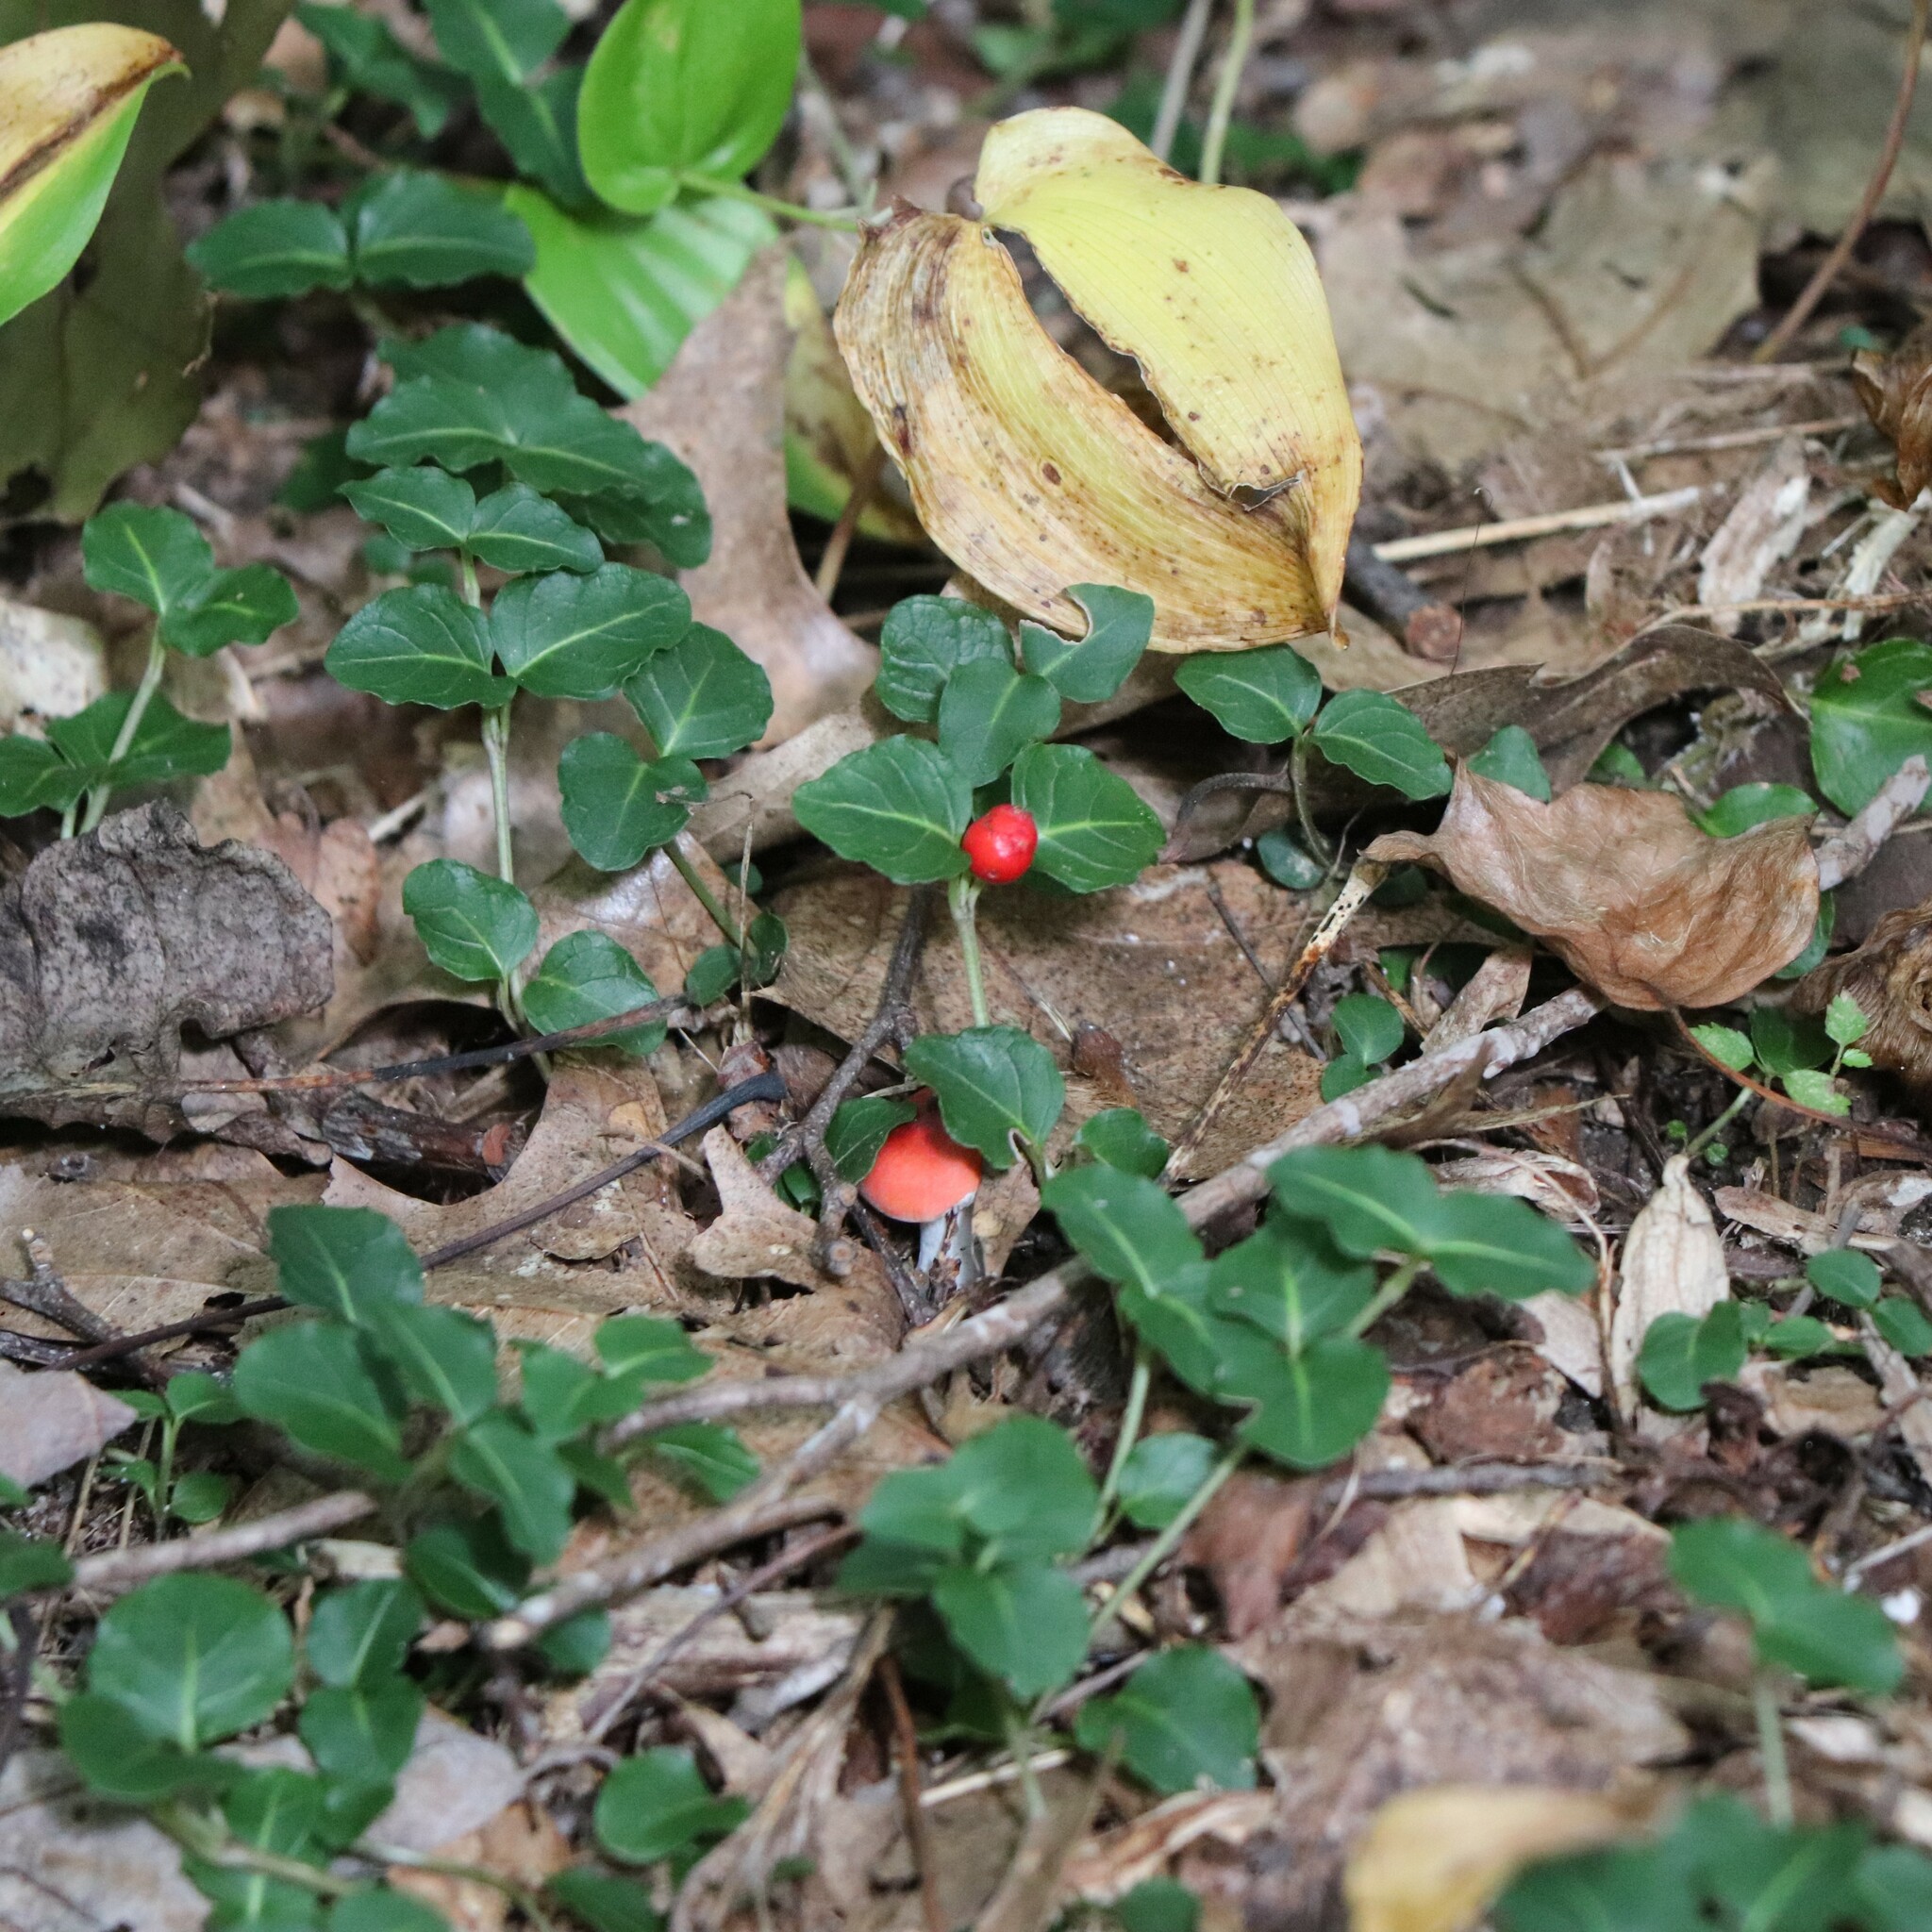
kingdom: Plantae
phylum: Tracheophyta
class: Magnoliopsida
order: Gentianales
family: Rubiaceae
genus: Mitchella
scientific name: Mitchella repens
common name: Partridge-berry
